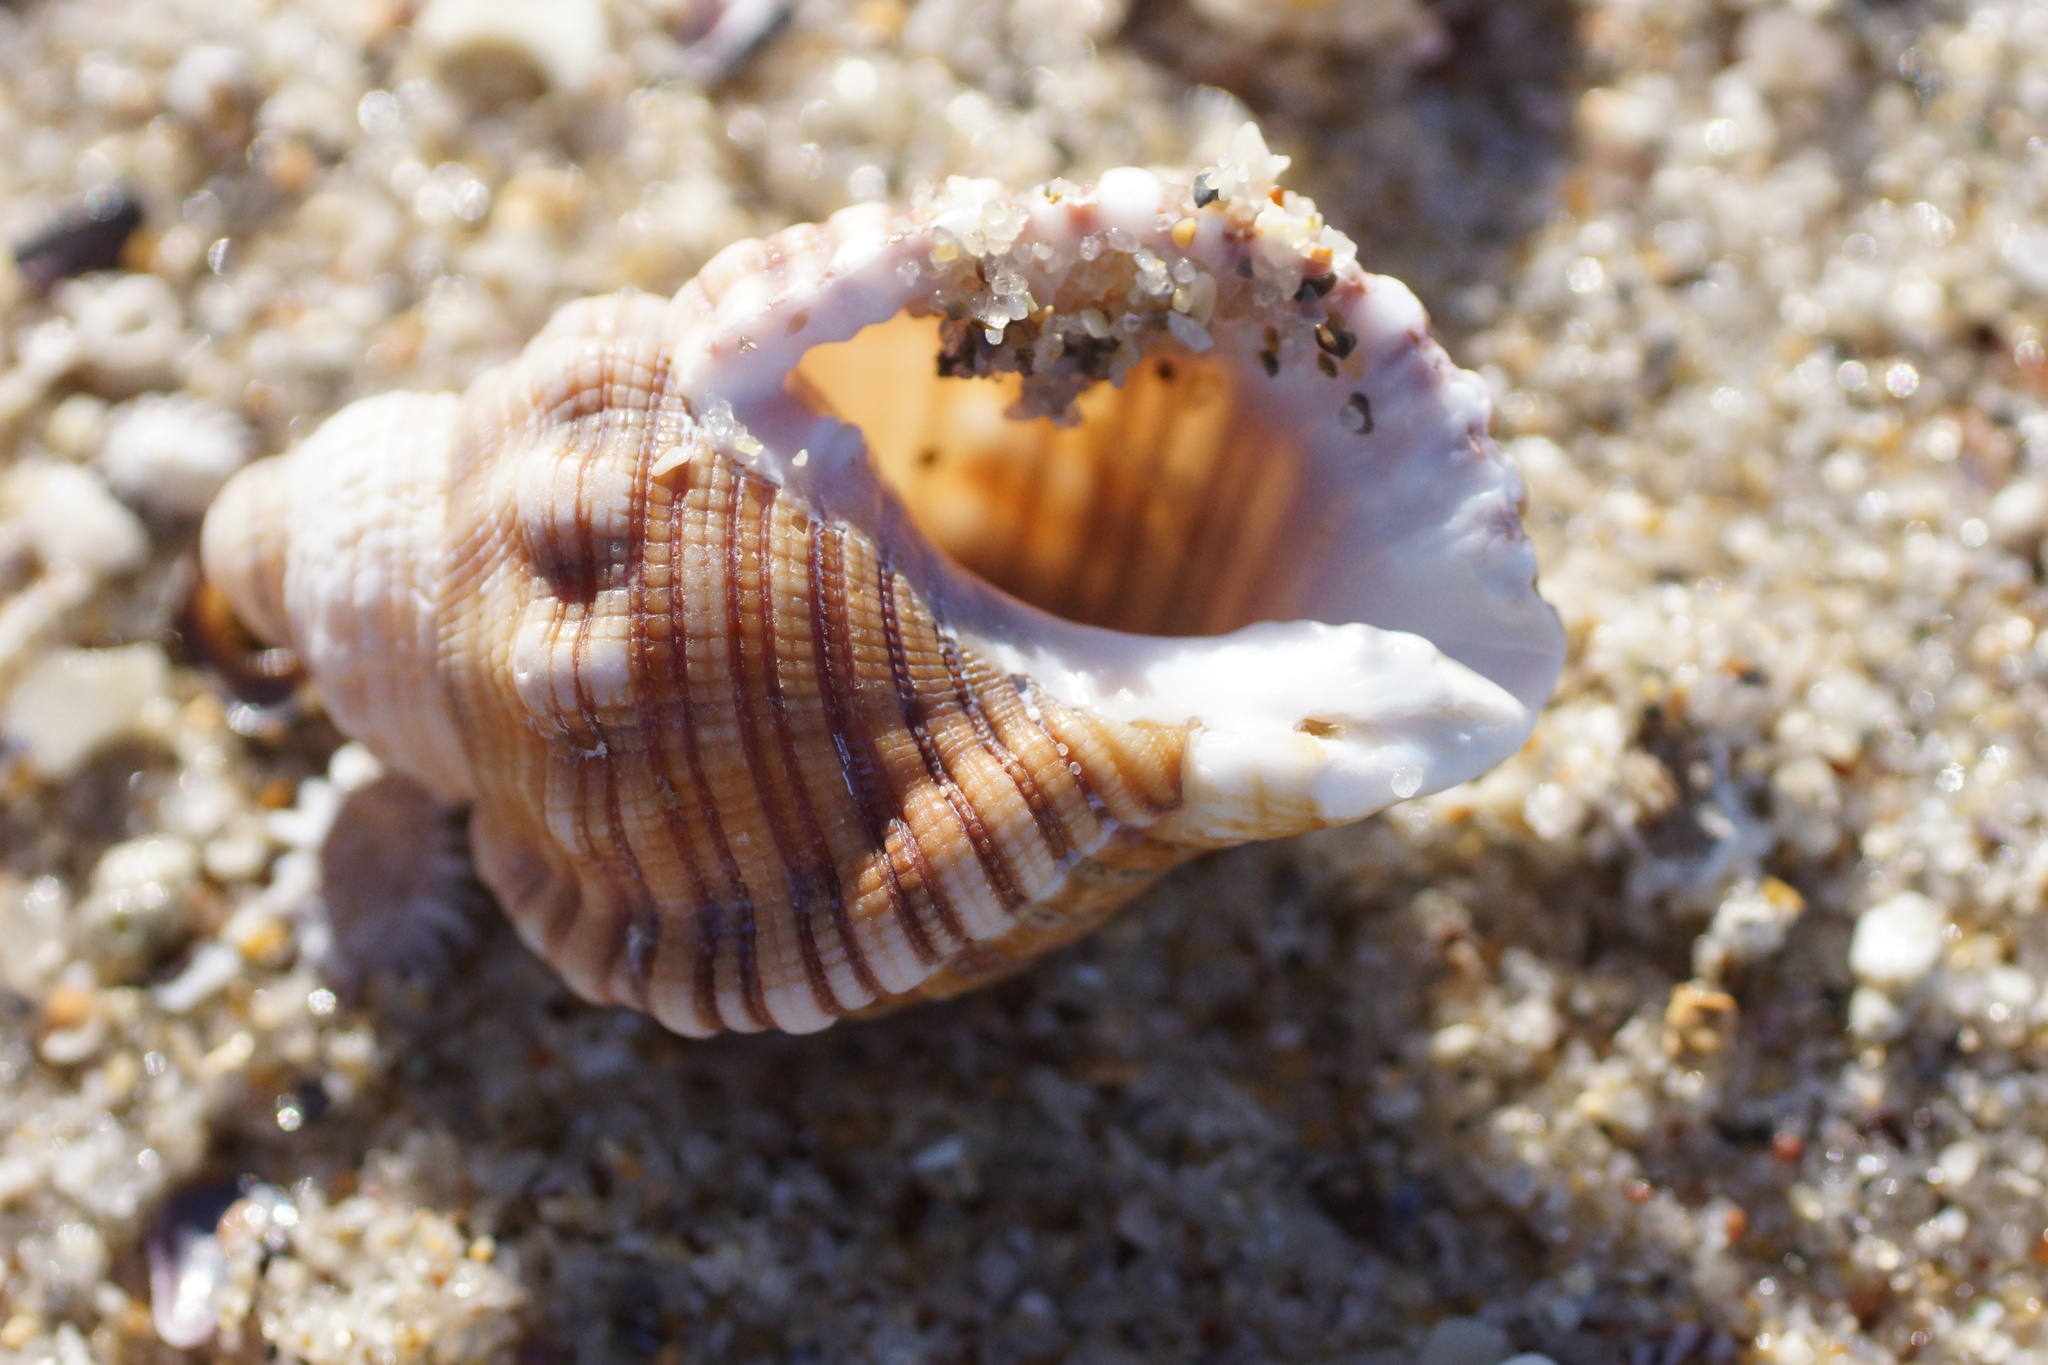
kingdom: Animalia
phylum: Mollusca
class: Gastropoda
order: Littorinimorpha
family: Cymatiidae
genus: Cabestana
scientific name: Cabestana spengleri
